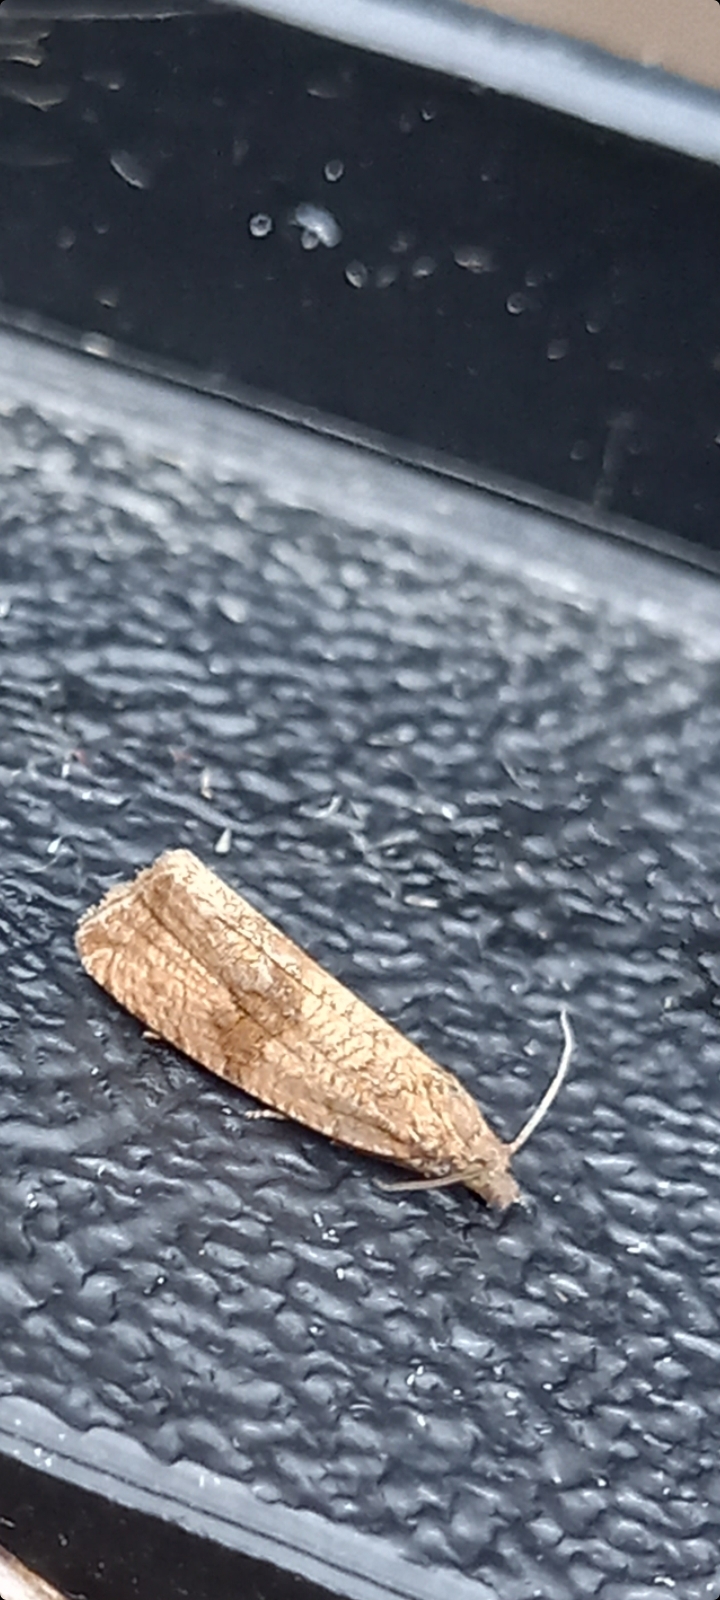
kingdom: Animalia
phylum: Arthropoda
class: Insecta
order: Lepidoptera
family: Tortricidae
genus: Celypha
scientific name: Celypha striana
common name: Barred marble
